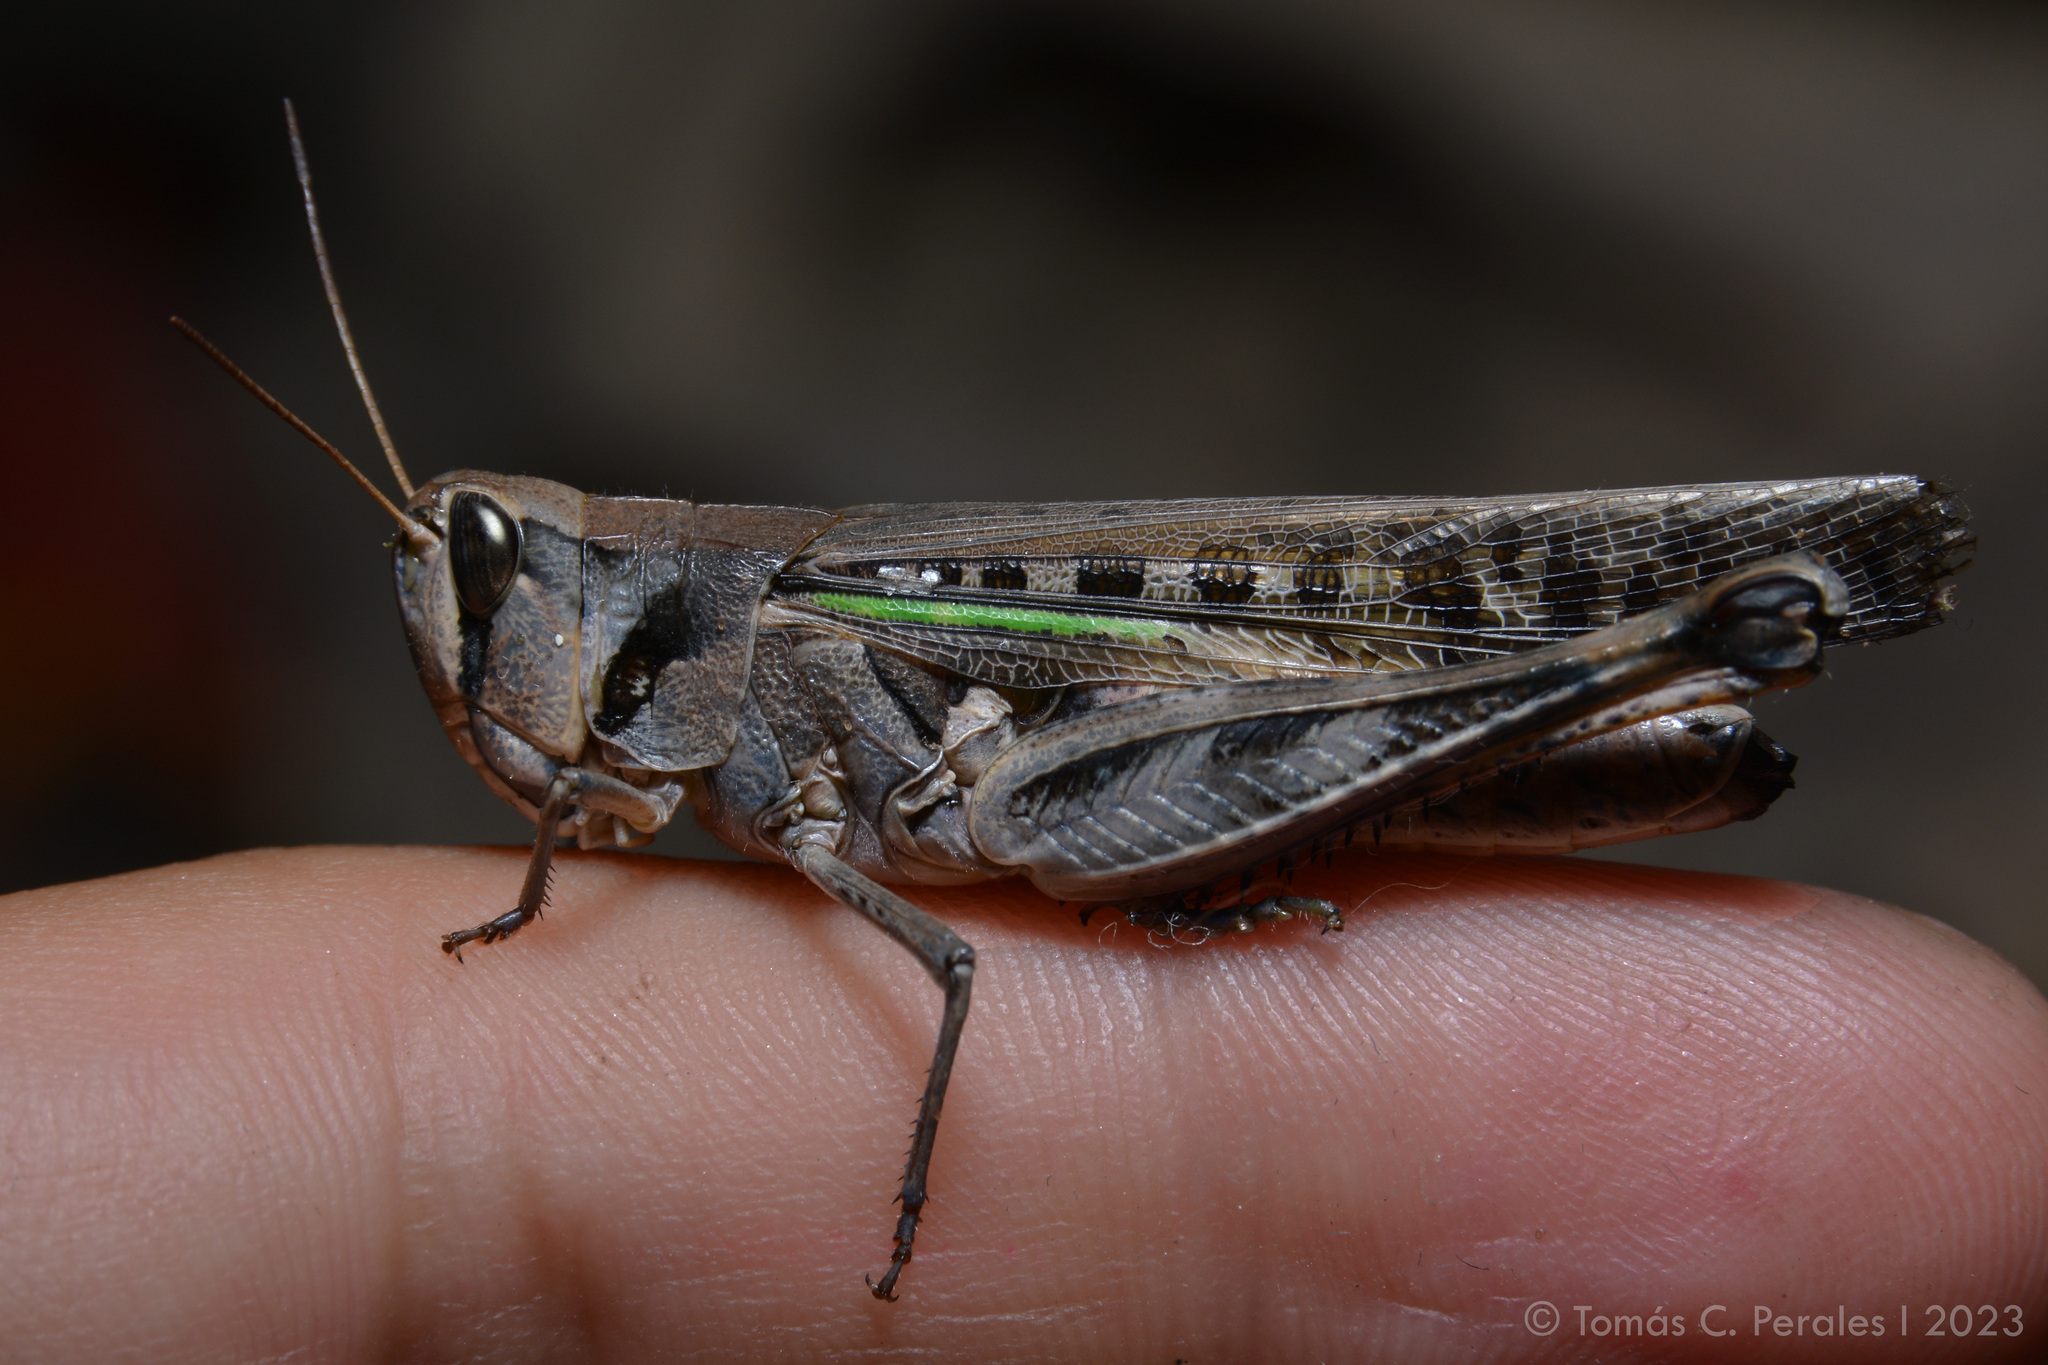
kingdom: Animalia
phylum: Arthropoda
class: Insecta
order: Orthoptera
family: Acrididae
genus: Rhammatocerus
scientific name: Rhammatocerus pictus
